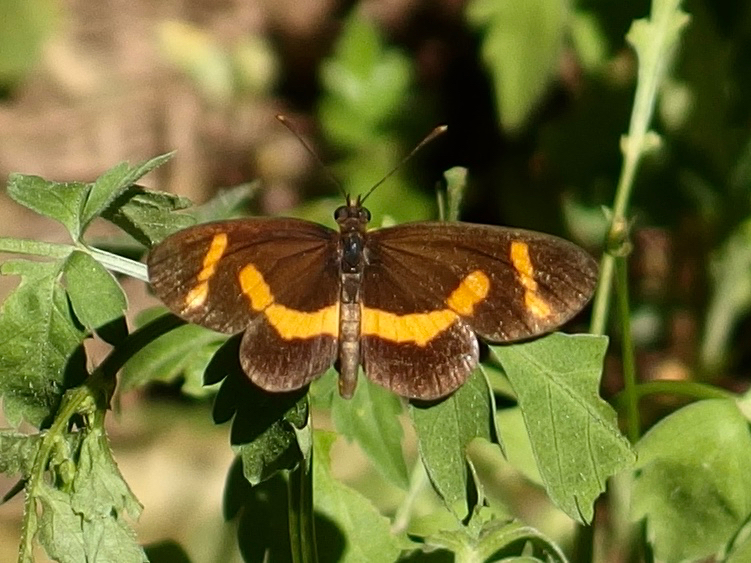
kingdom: Animalia
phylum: Arthropoda
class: Insecta
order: Lepidoptera
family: Nymphalidae
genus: Microtia
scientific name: Microtia elva
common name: Elf
